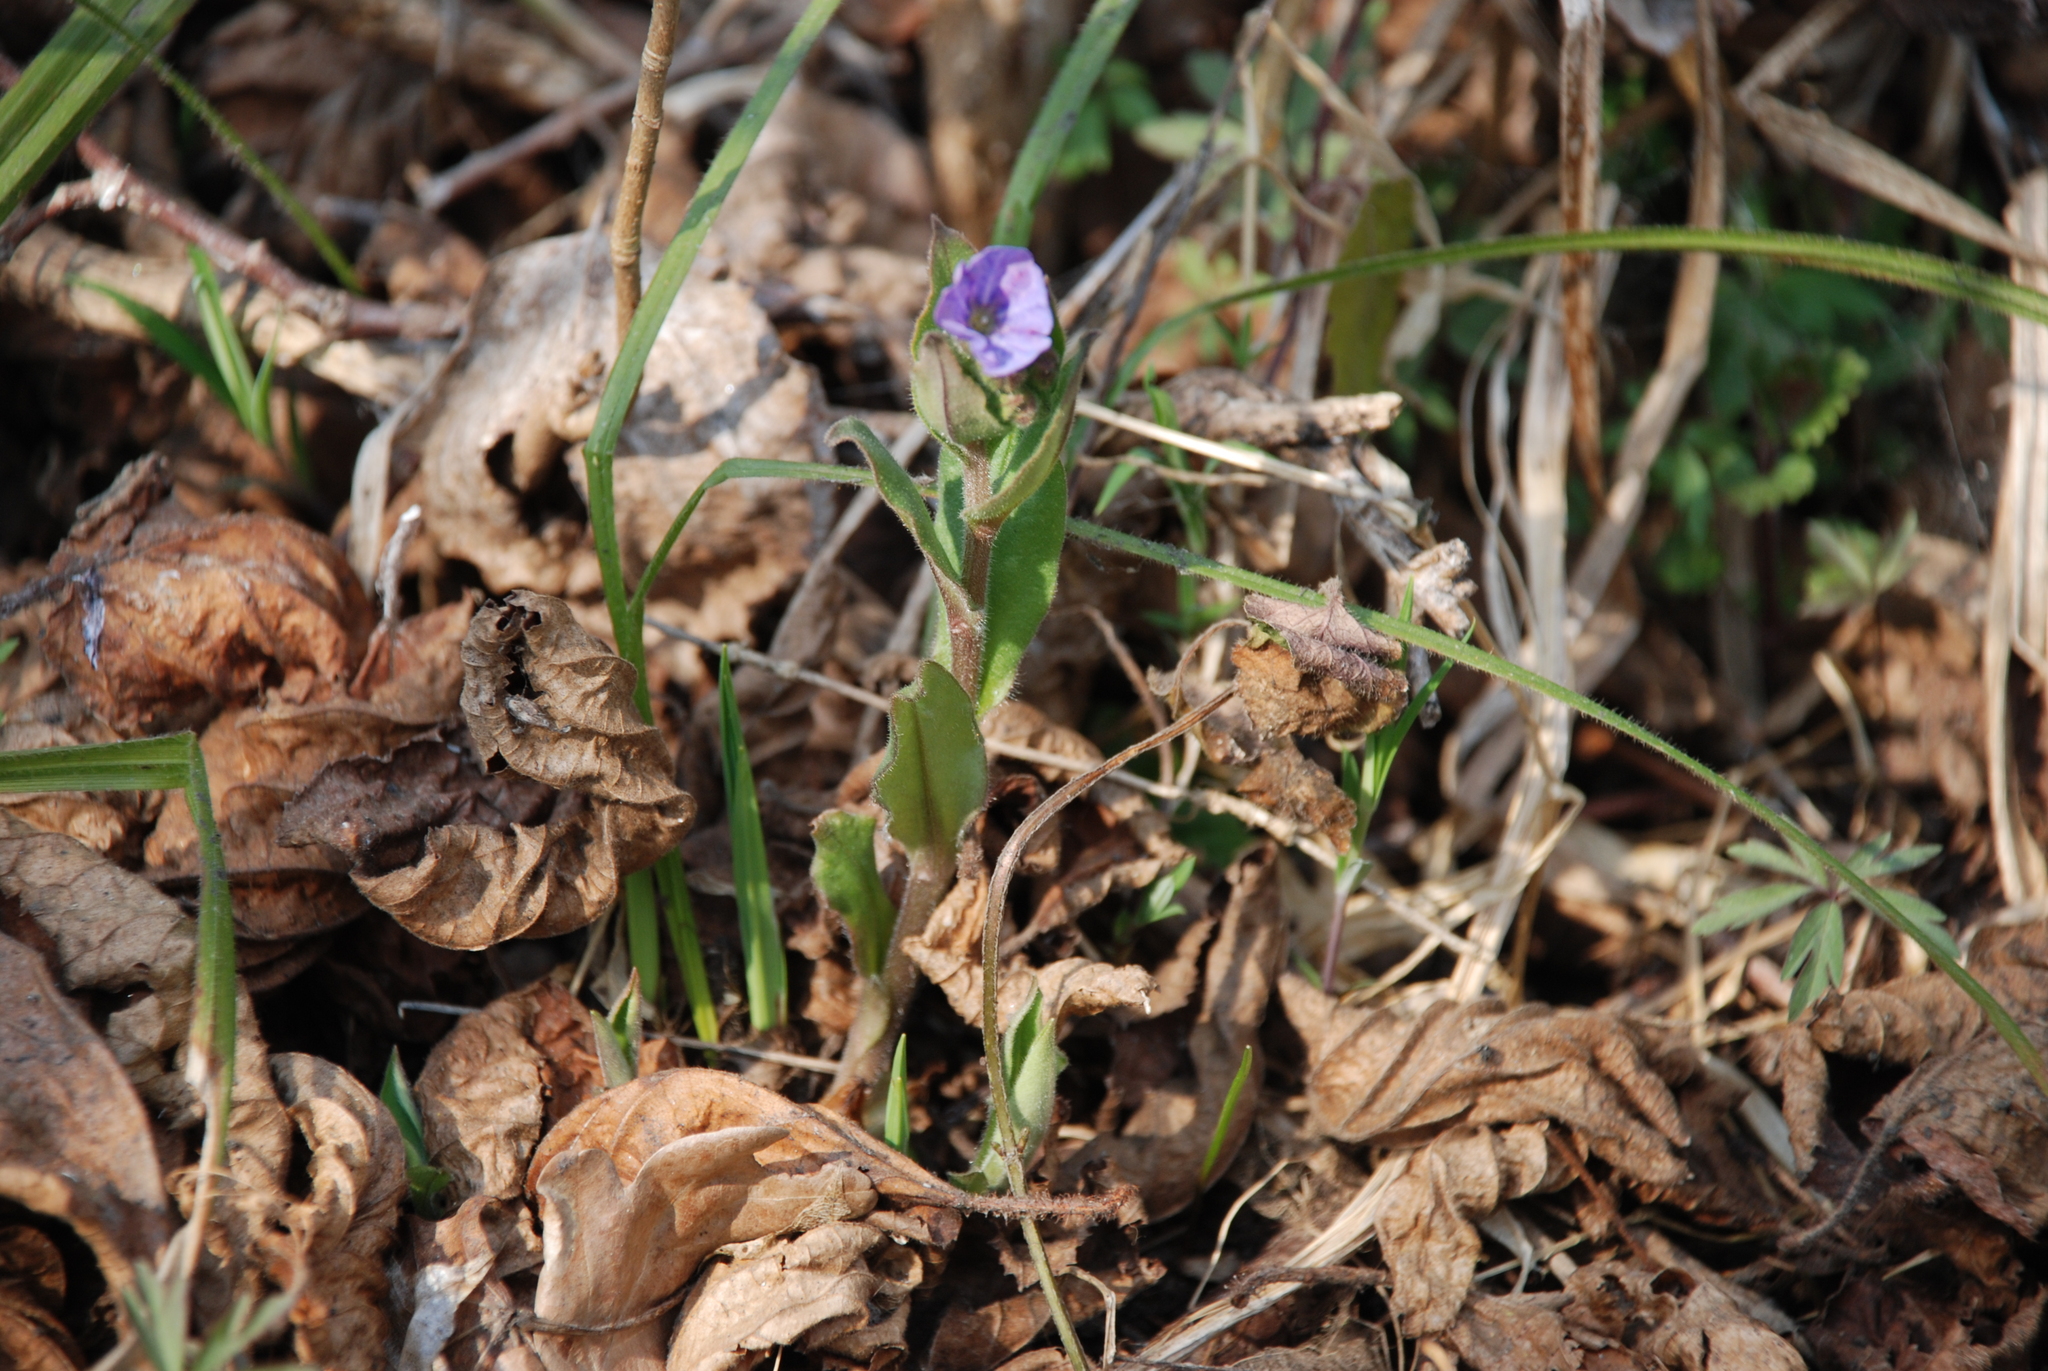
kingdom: Plantae
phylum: Tracheophyta
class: Magnoliopsida
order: Boraginales
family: Boraginaceae
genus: Pulmonaria
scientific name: Pulmonaria obscura
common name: Suffolk lungwort
